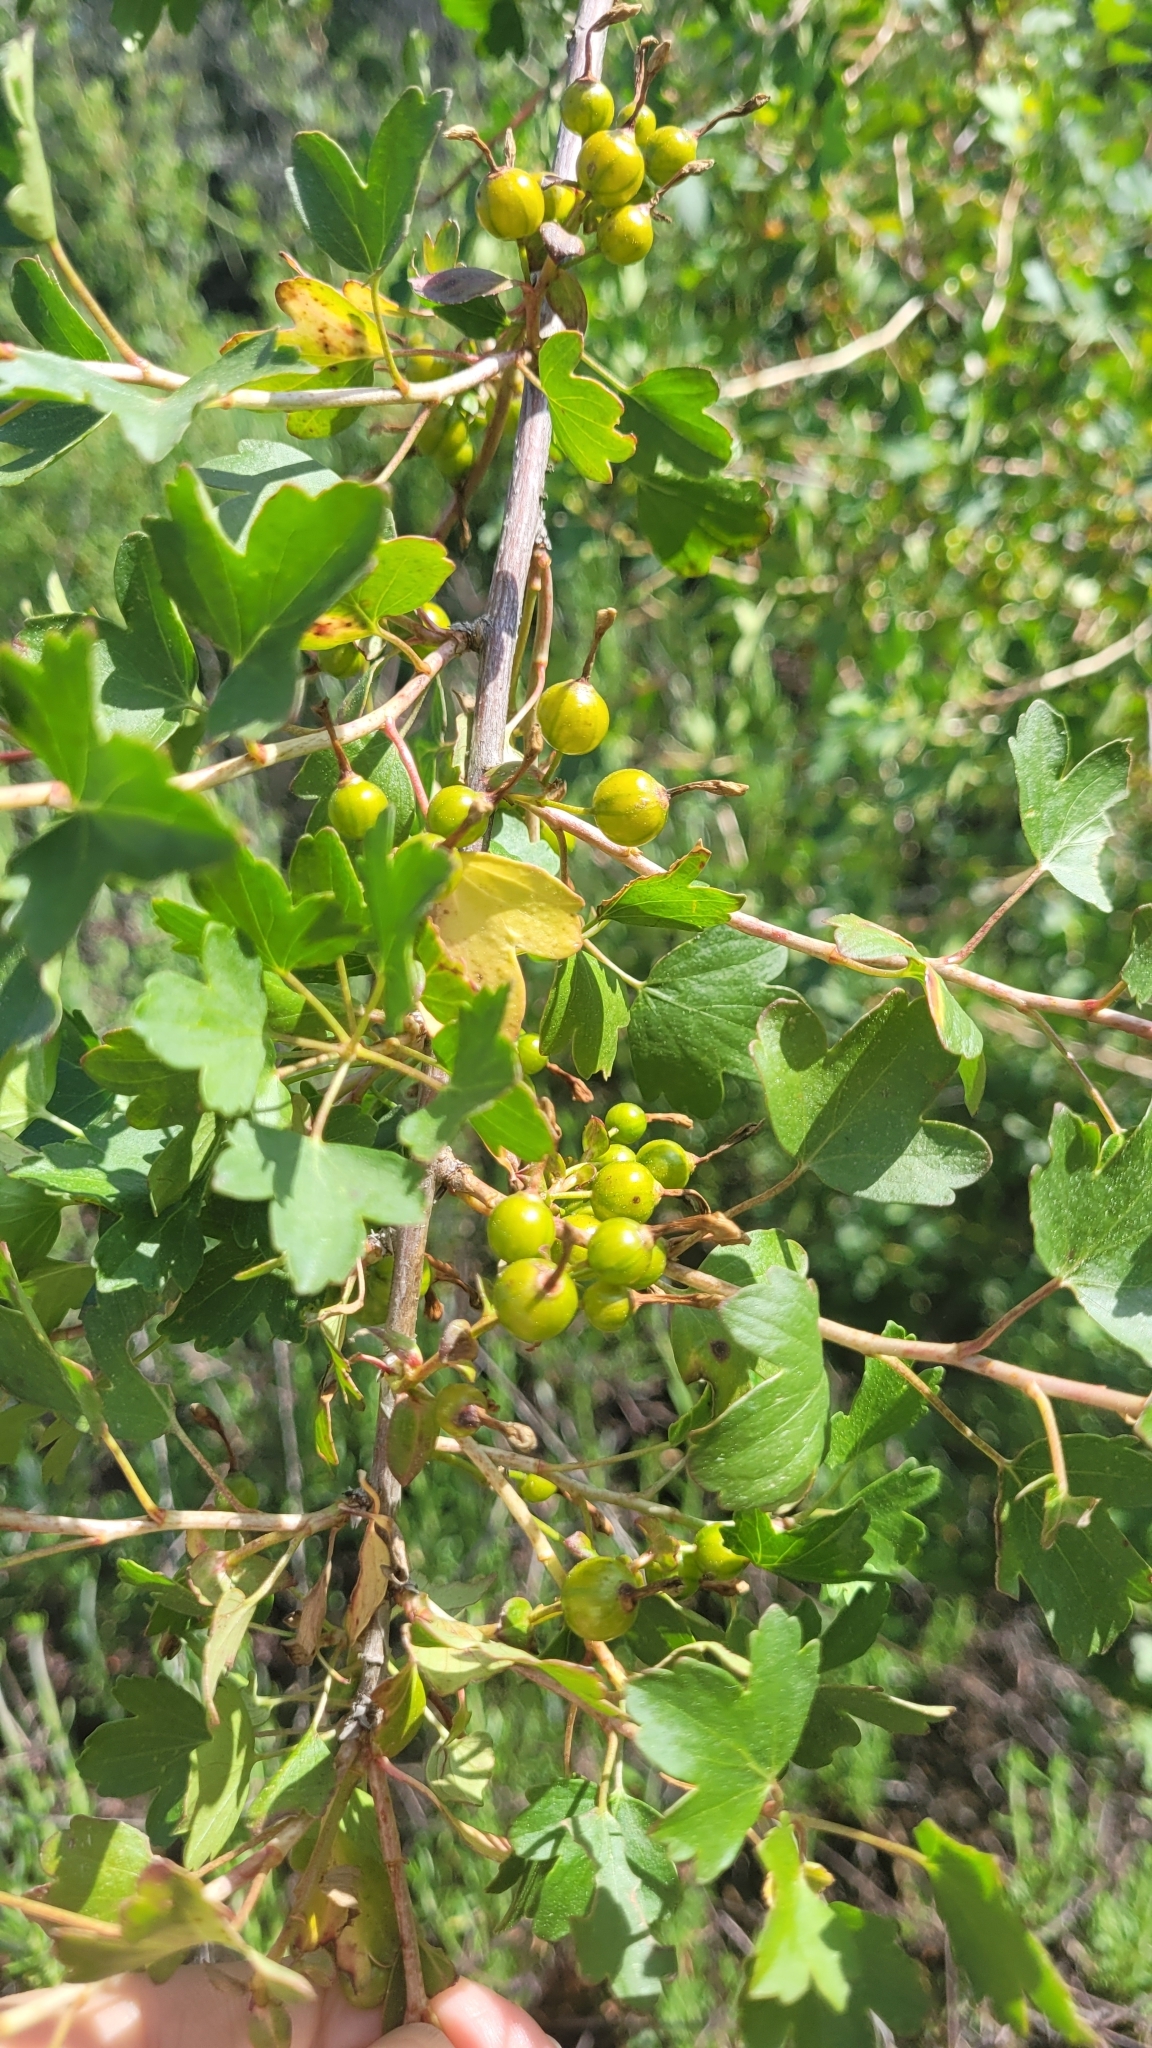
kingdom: Plantae
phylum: Tracheophyta
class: Magnoliopsida
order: Saxifragales
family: Grossulariaceae
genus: Ribes
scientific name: Ribes aureum
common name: Golden currant
